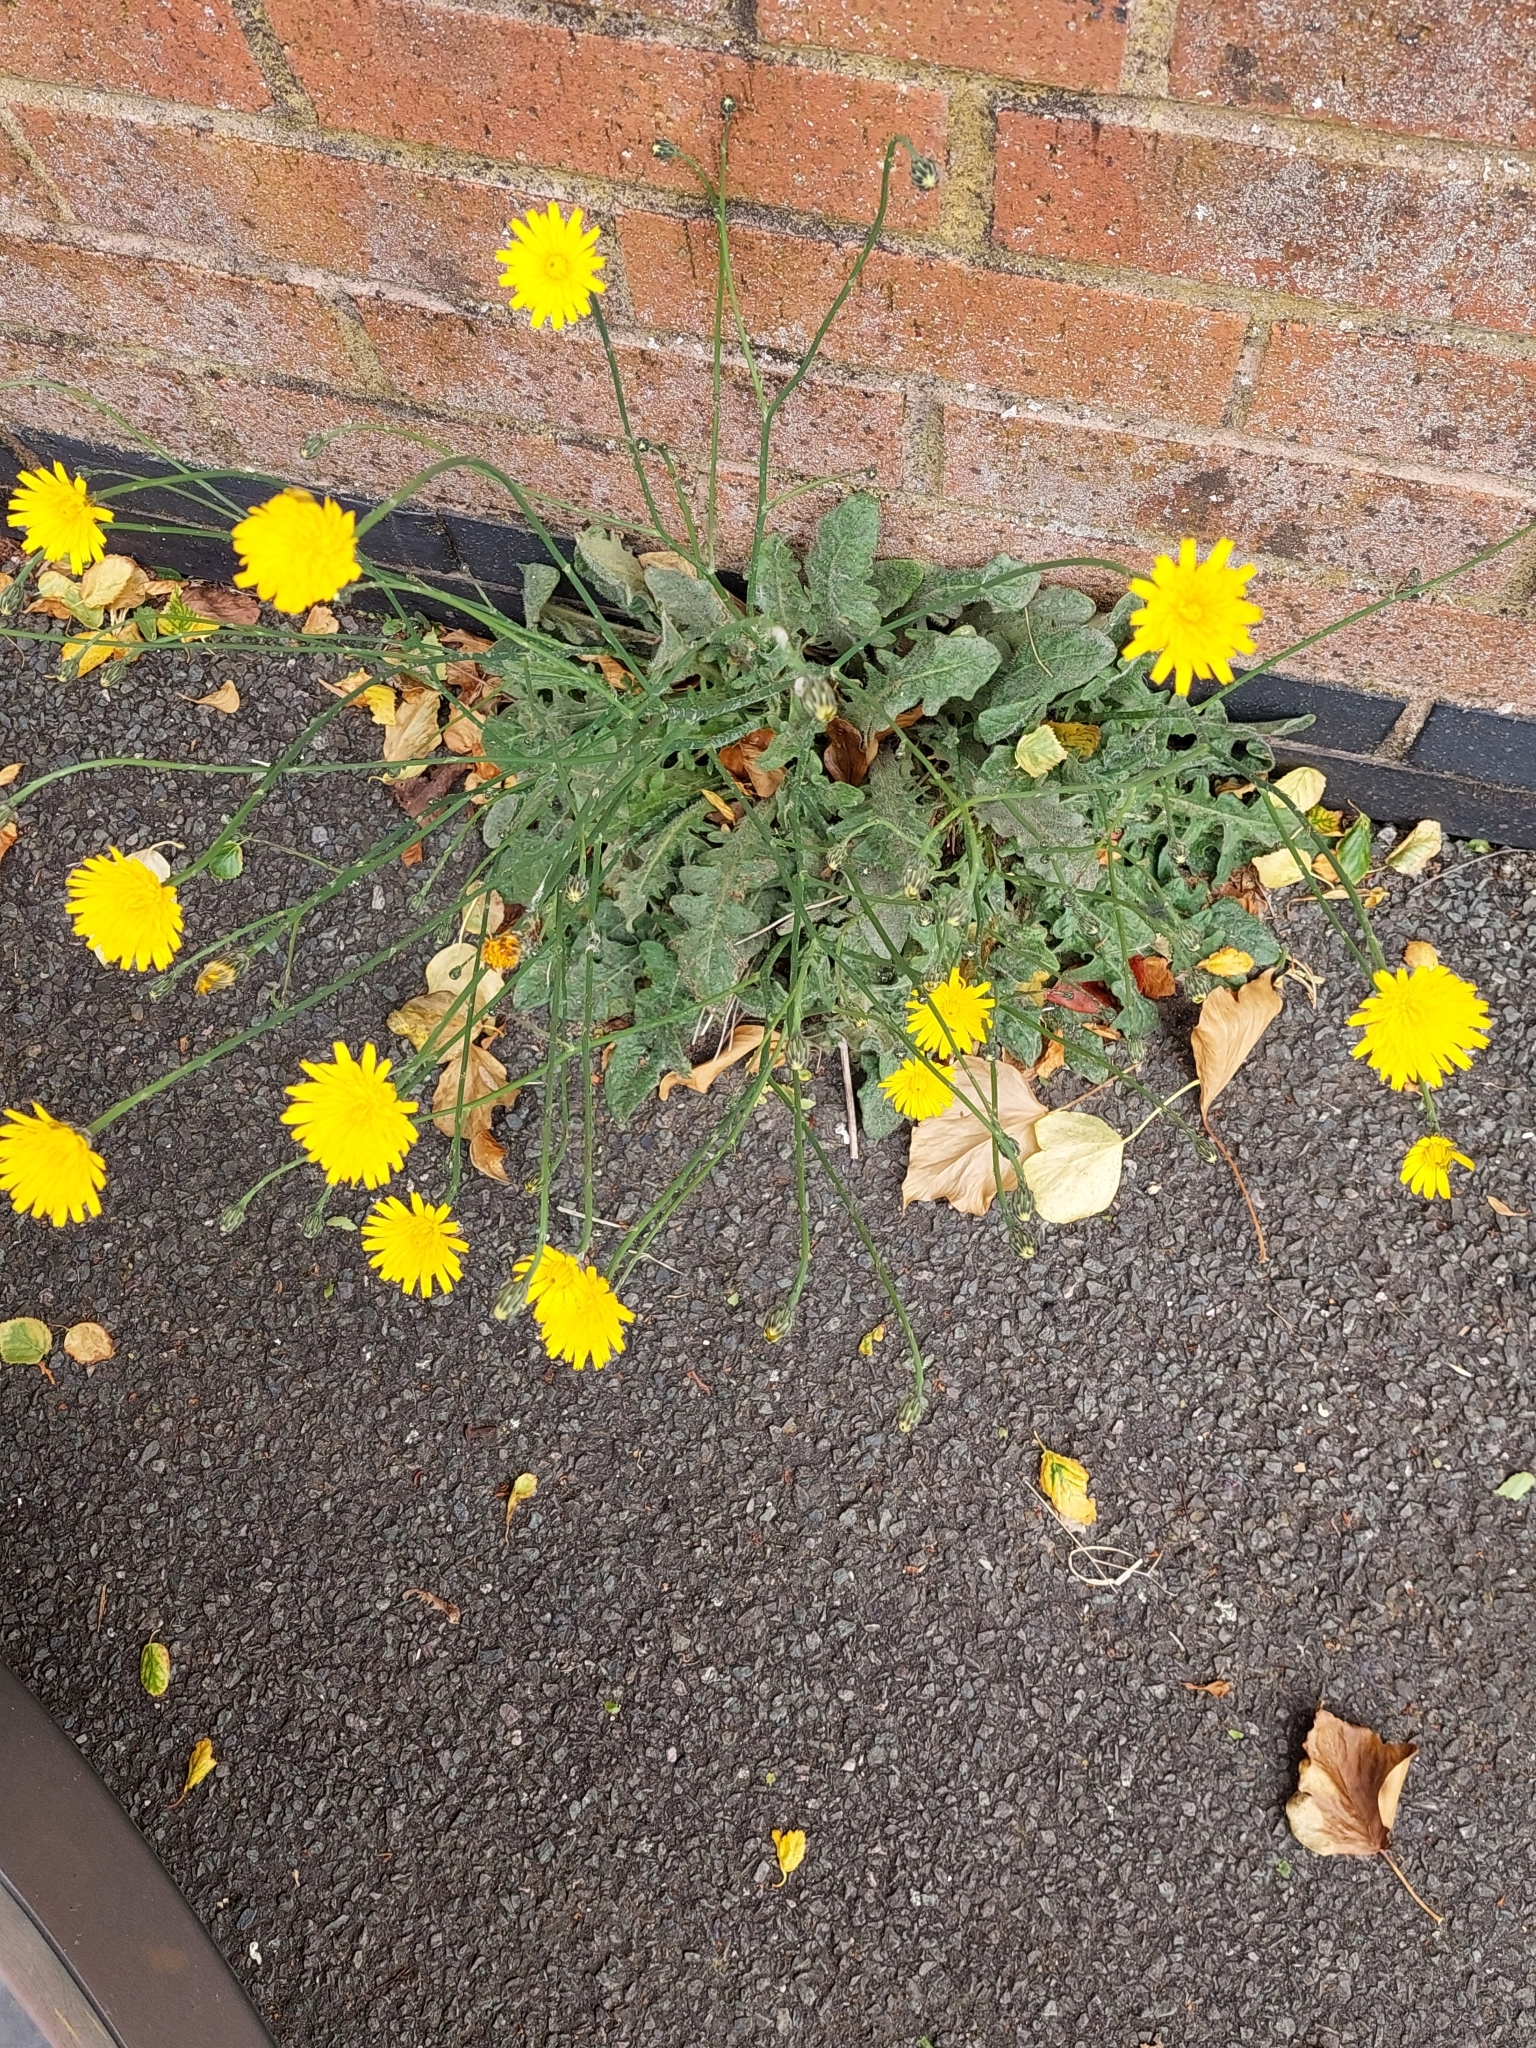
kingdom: Plantae
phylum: Tracheophyta
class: Magnoliopsida
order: Asterales
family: Asteraceae
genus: Hypochaeris
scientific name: Hypochaeris radicata
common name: Flatweed
